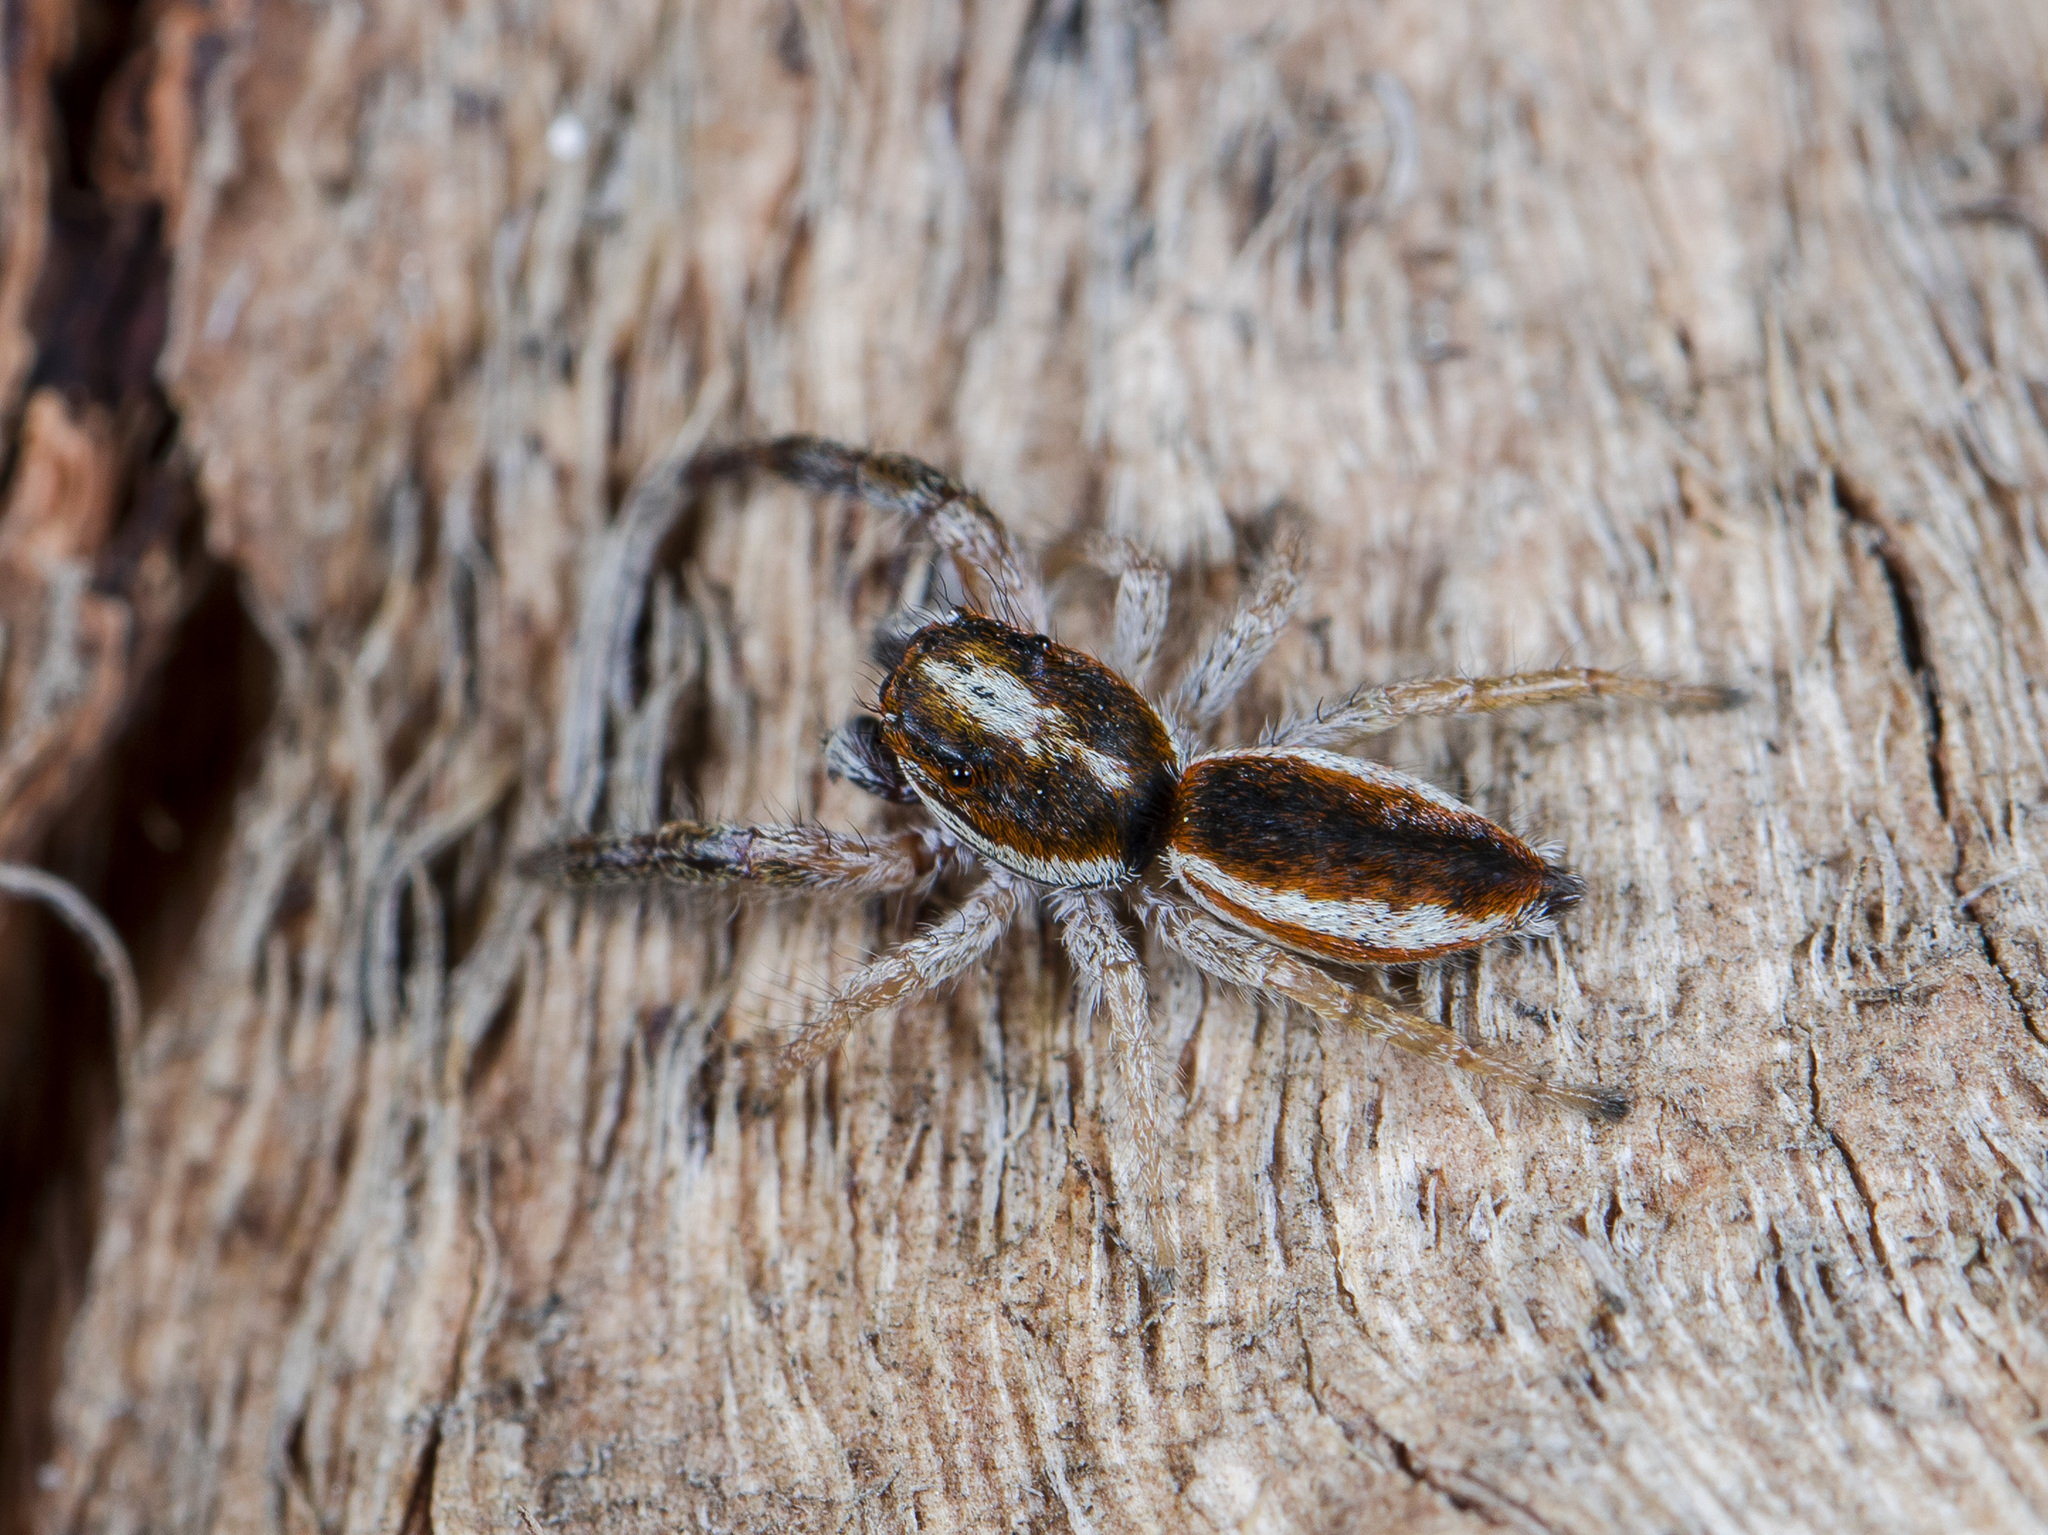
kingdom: Animalia
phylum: Arthropoda
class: Arachnida
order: Araneae
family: Salticidae
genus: Rudakius
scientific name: Rudakius cinctus
